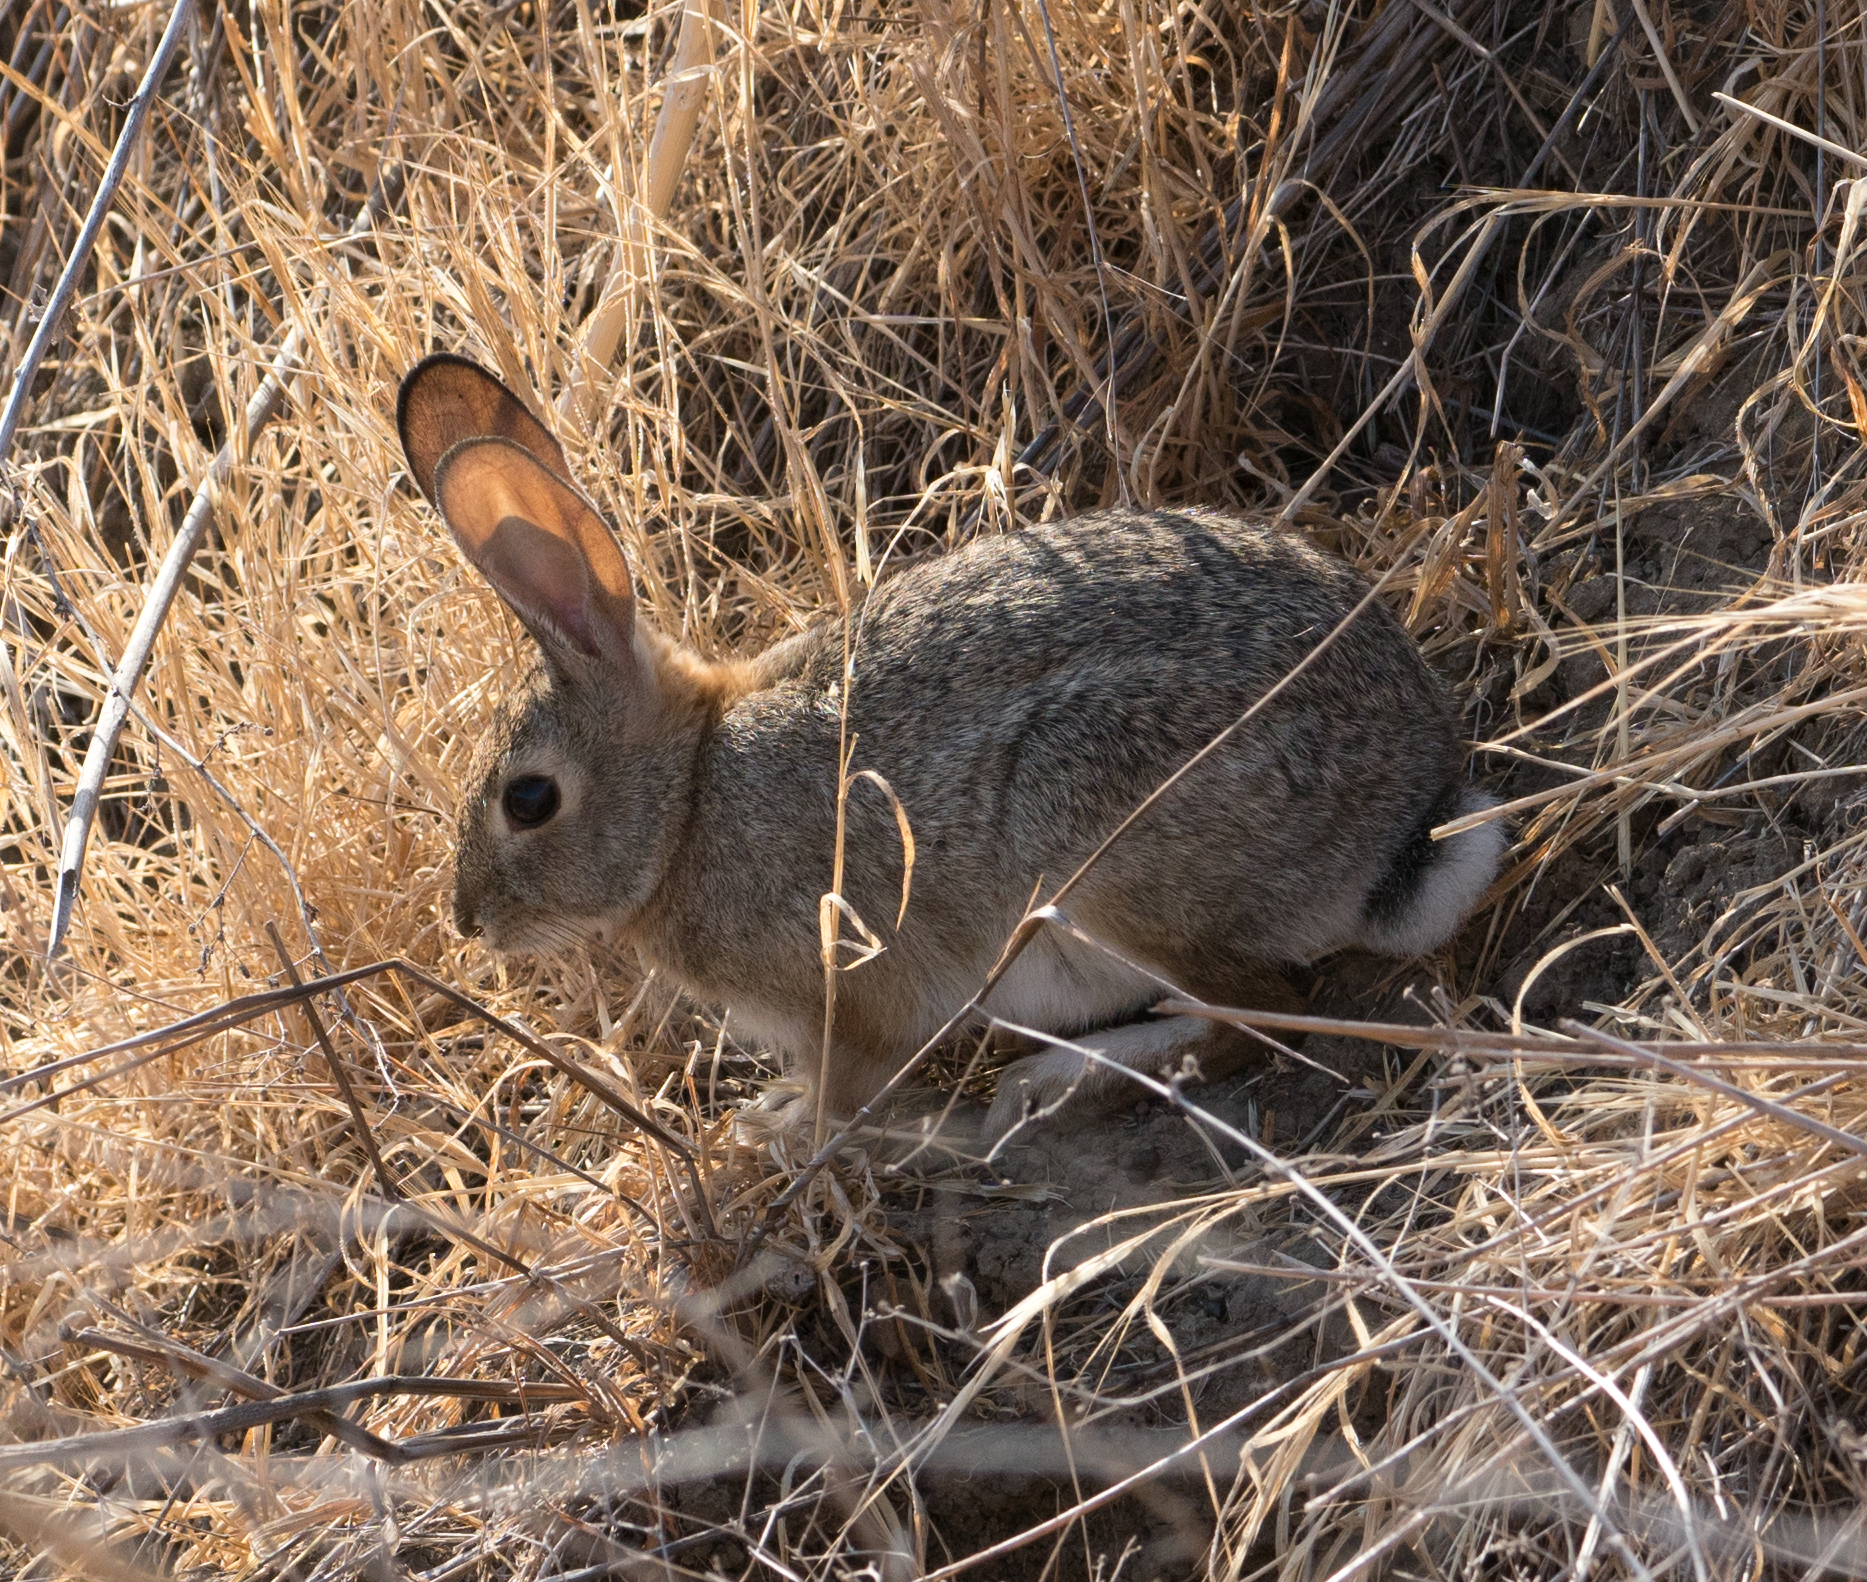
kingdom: Animalia
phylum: Chordata
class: Mammalia
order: Lagomorpha
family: Leporidae
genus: Sylvilagus
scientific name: Sylvilagus audubonii
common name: Desert cottontail
